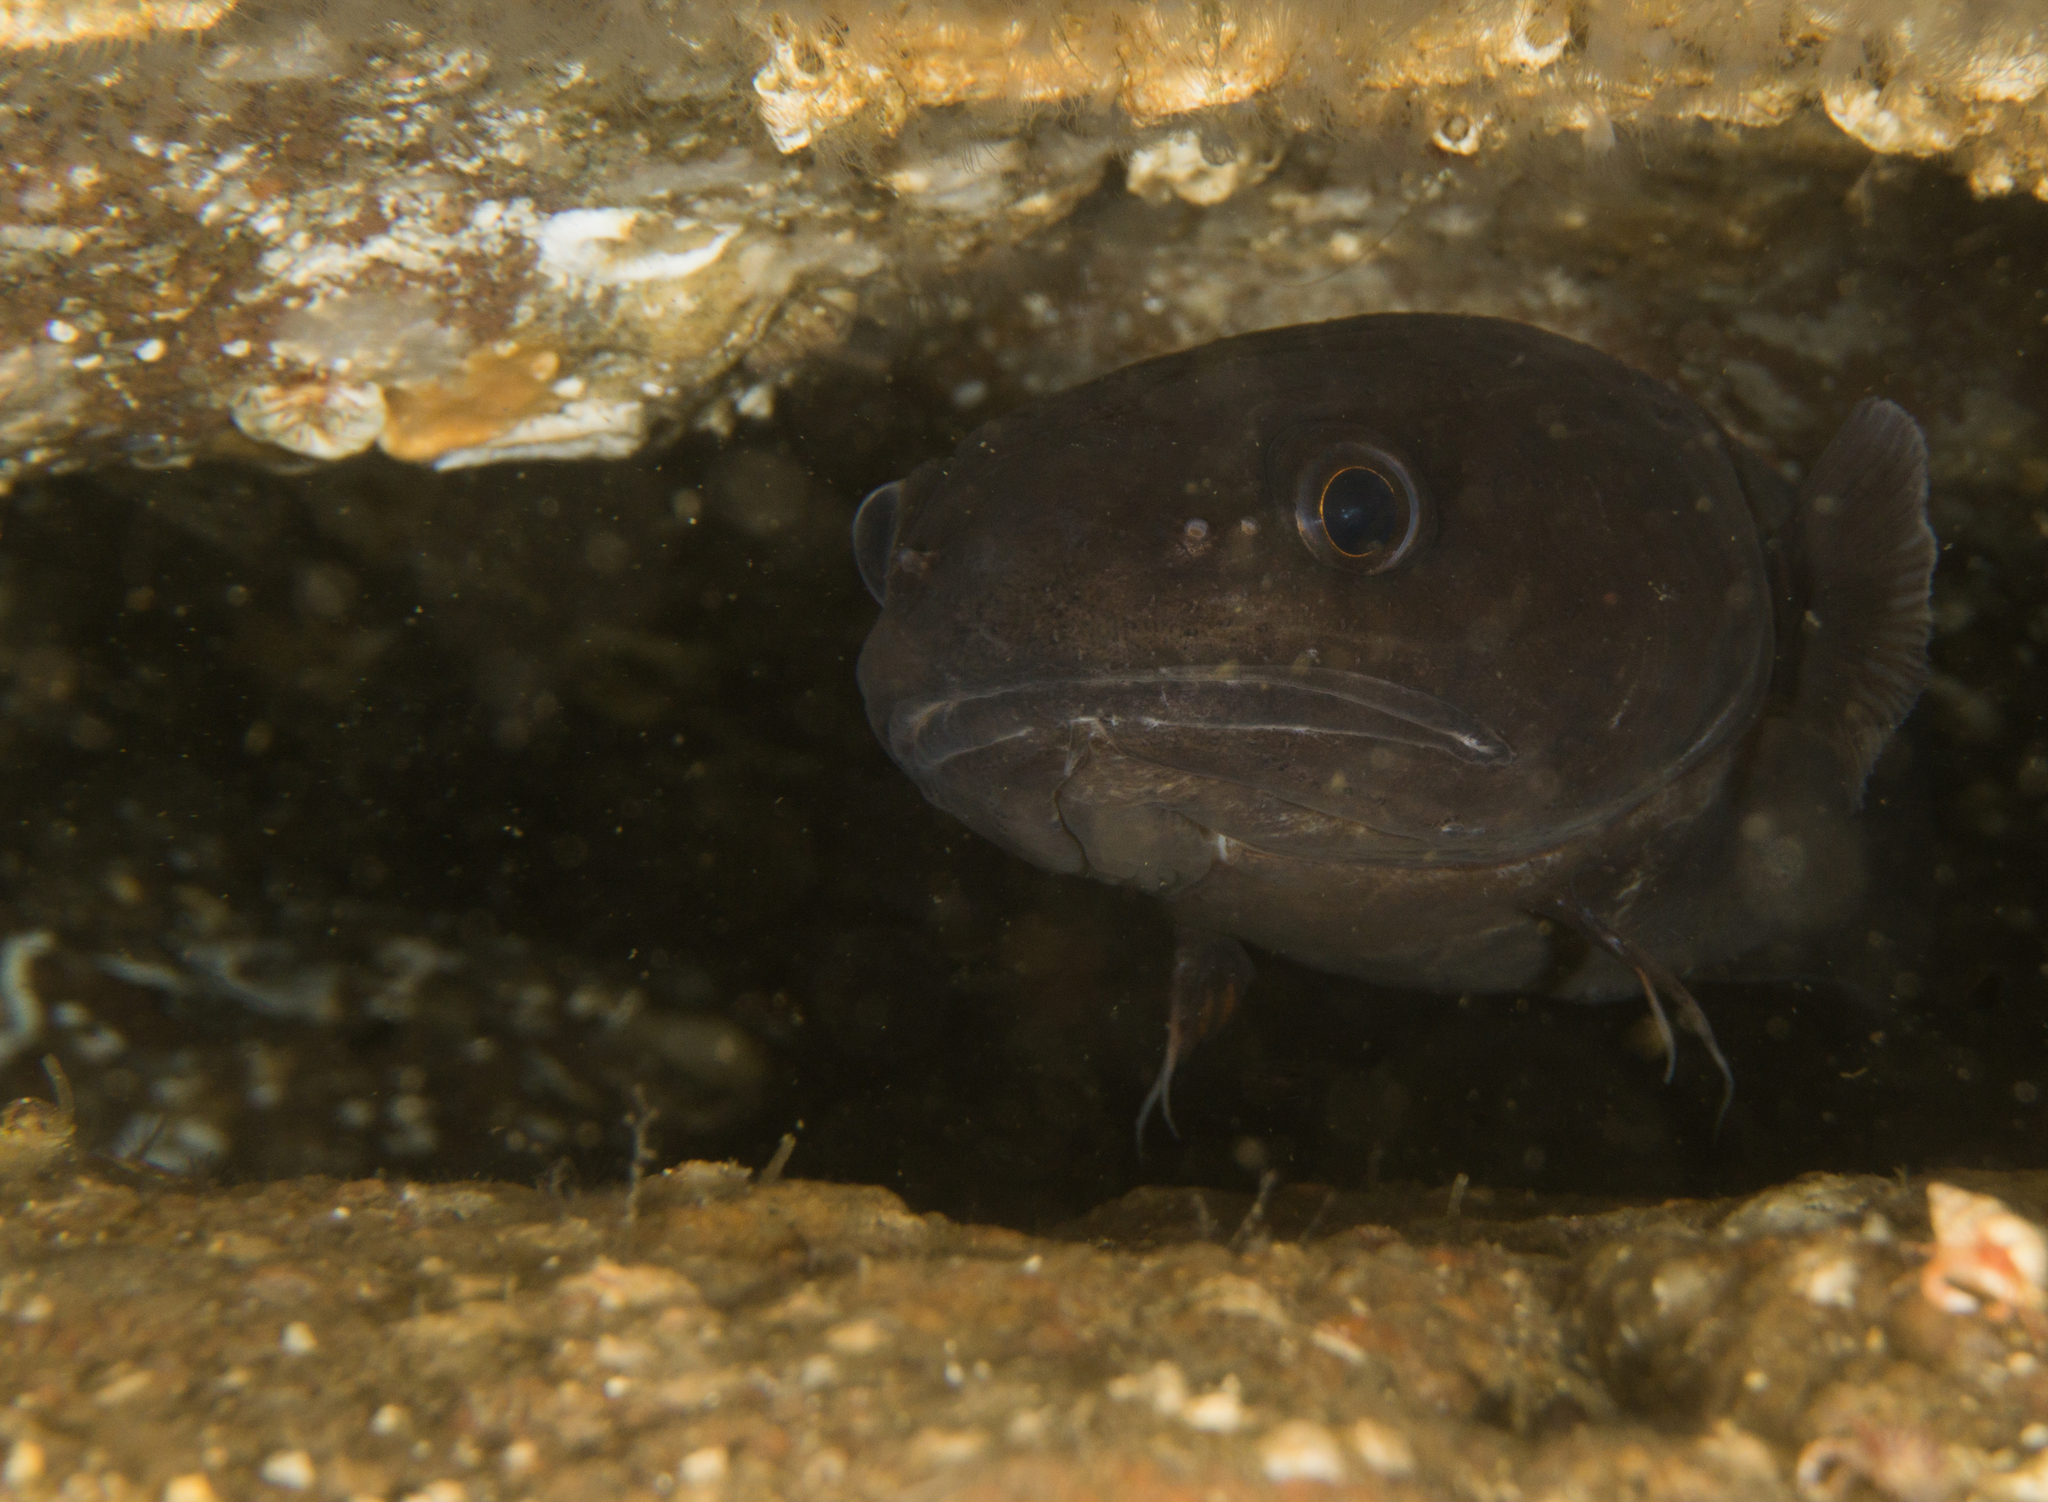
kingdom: Animalia
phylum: Chordata
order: Gadiformes
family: Gadidae
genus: Raniceps
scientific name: Raniceps raninus
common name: Tadpole fish
